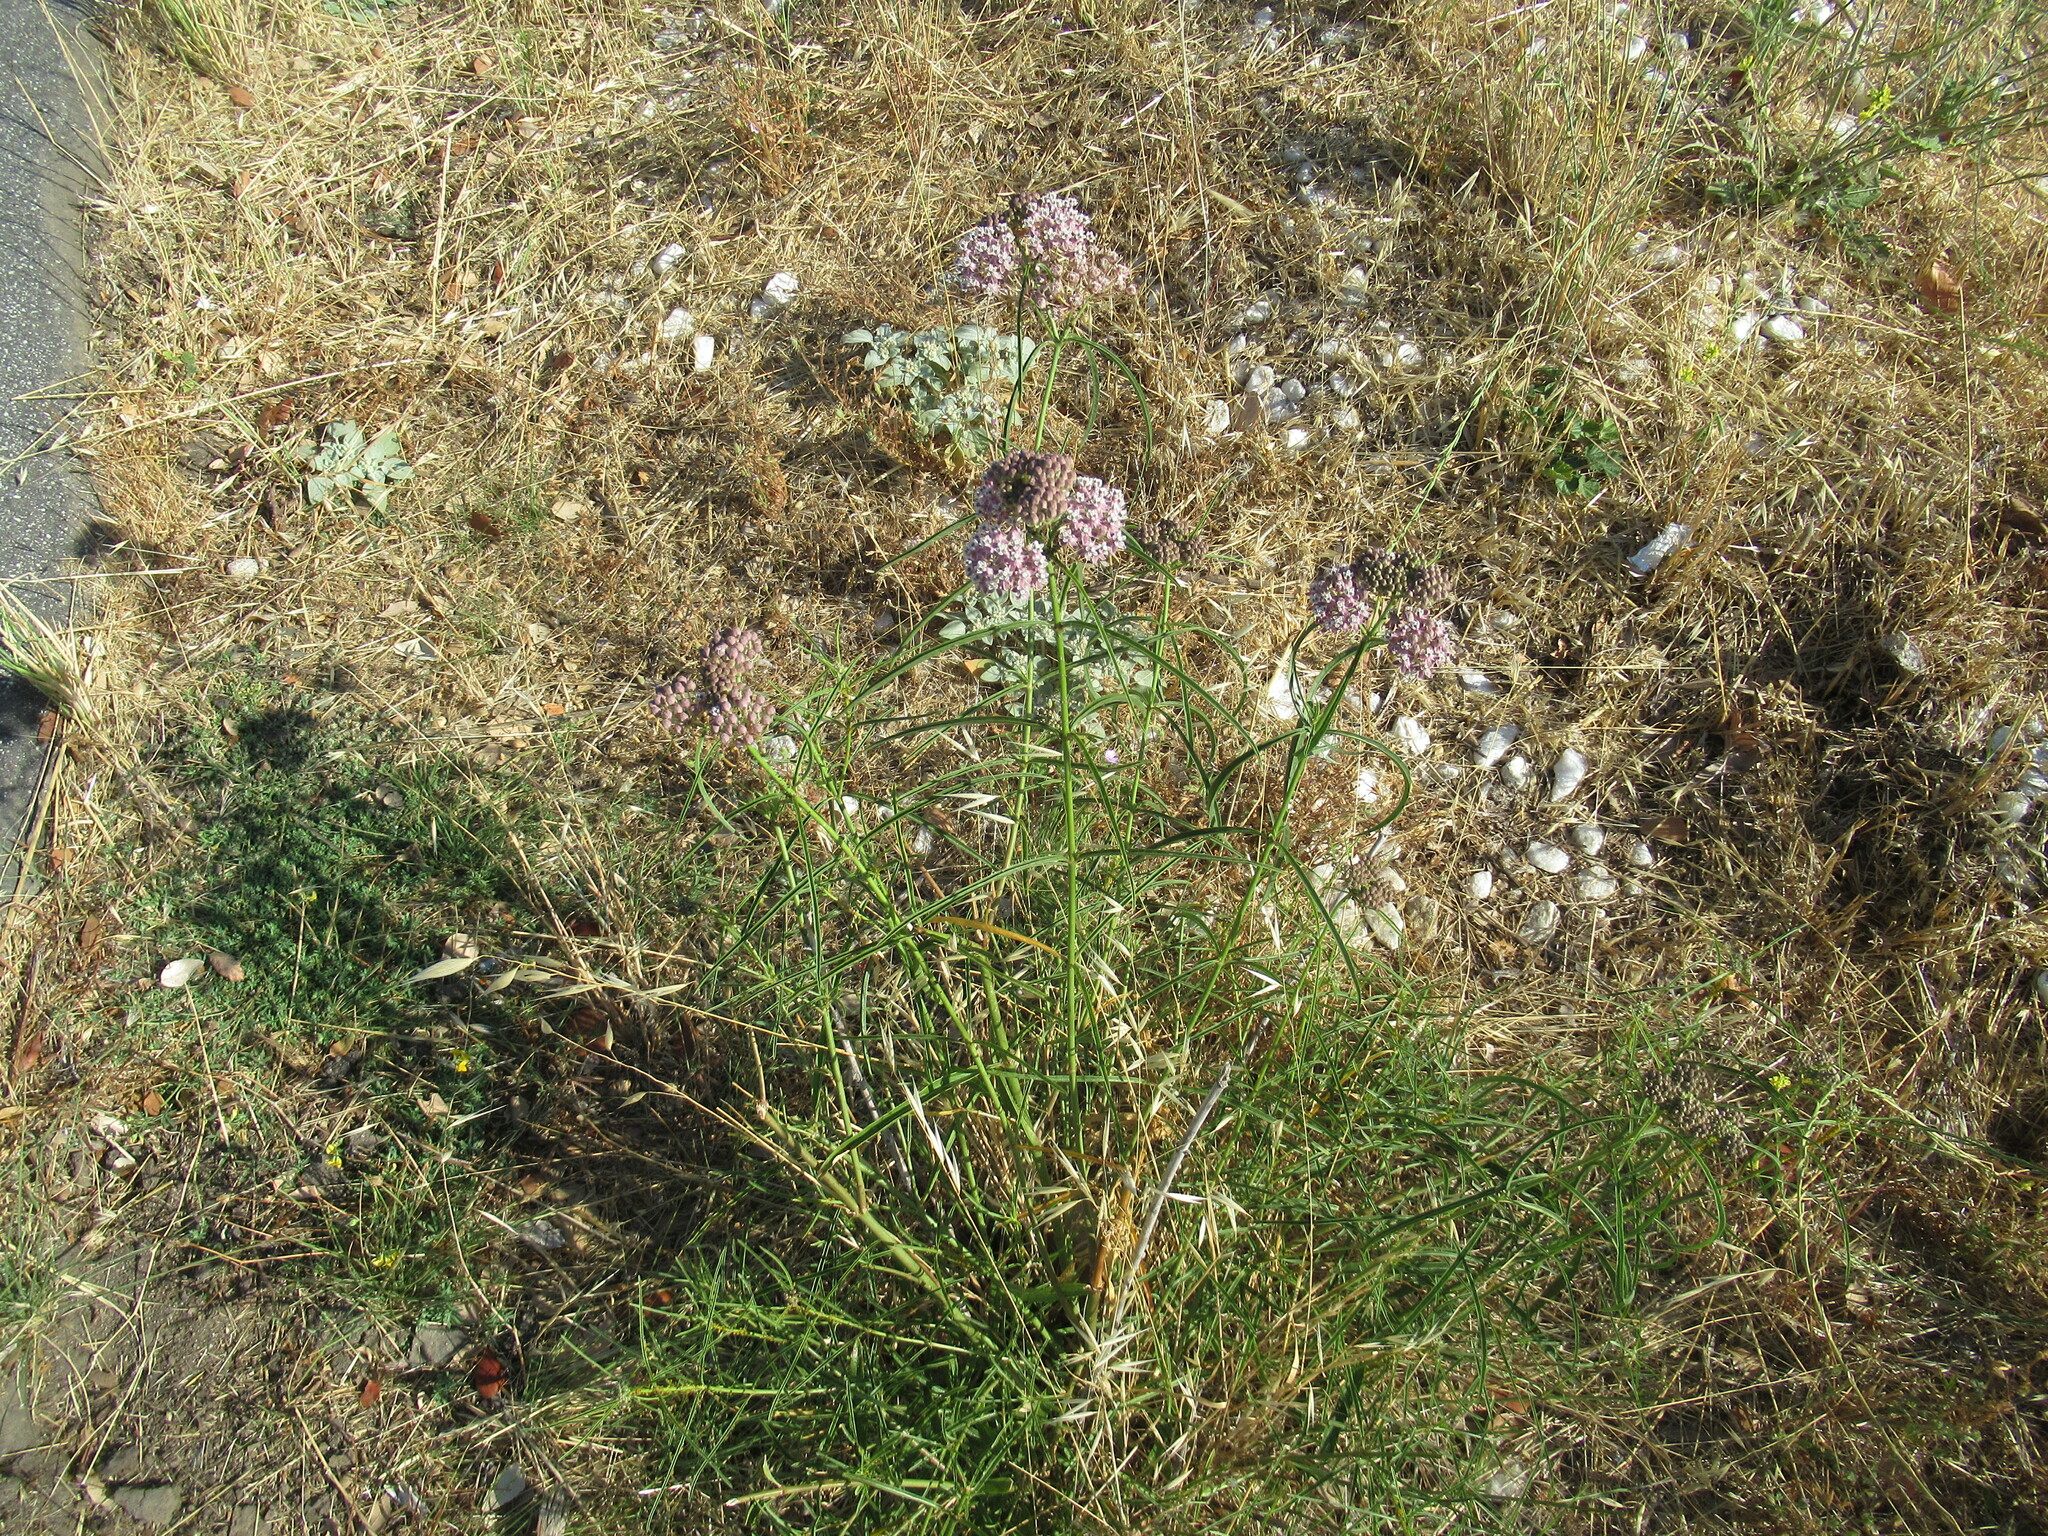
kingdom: Plantae
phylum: Tracheophyta
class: Magnoliopsida
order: Gentianales
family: Apocynaceae
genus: Asclepias
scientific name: Asclepias fascicularis
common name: Mexican milkweed
